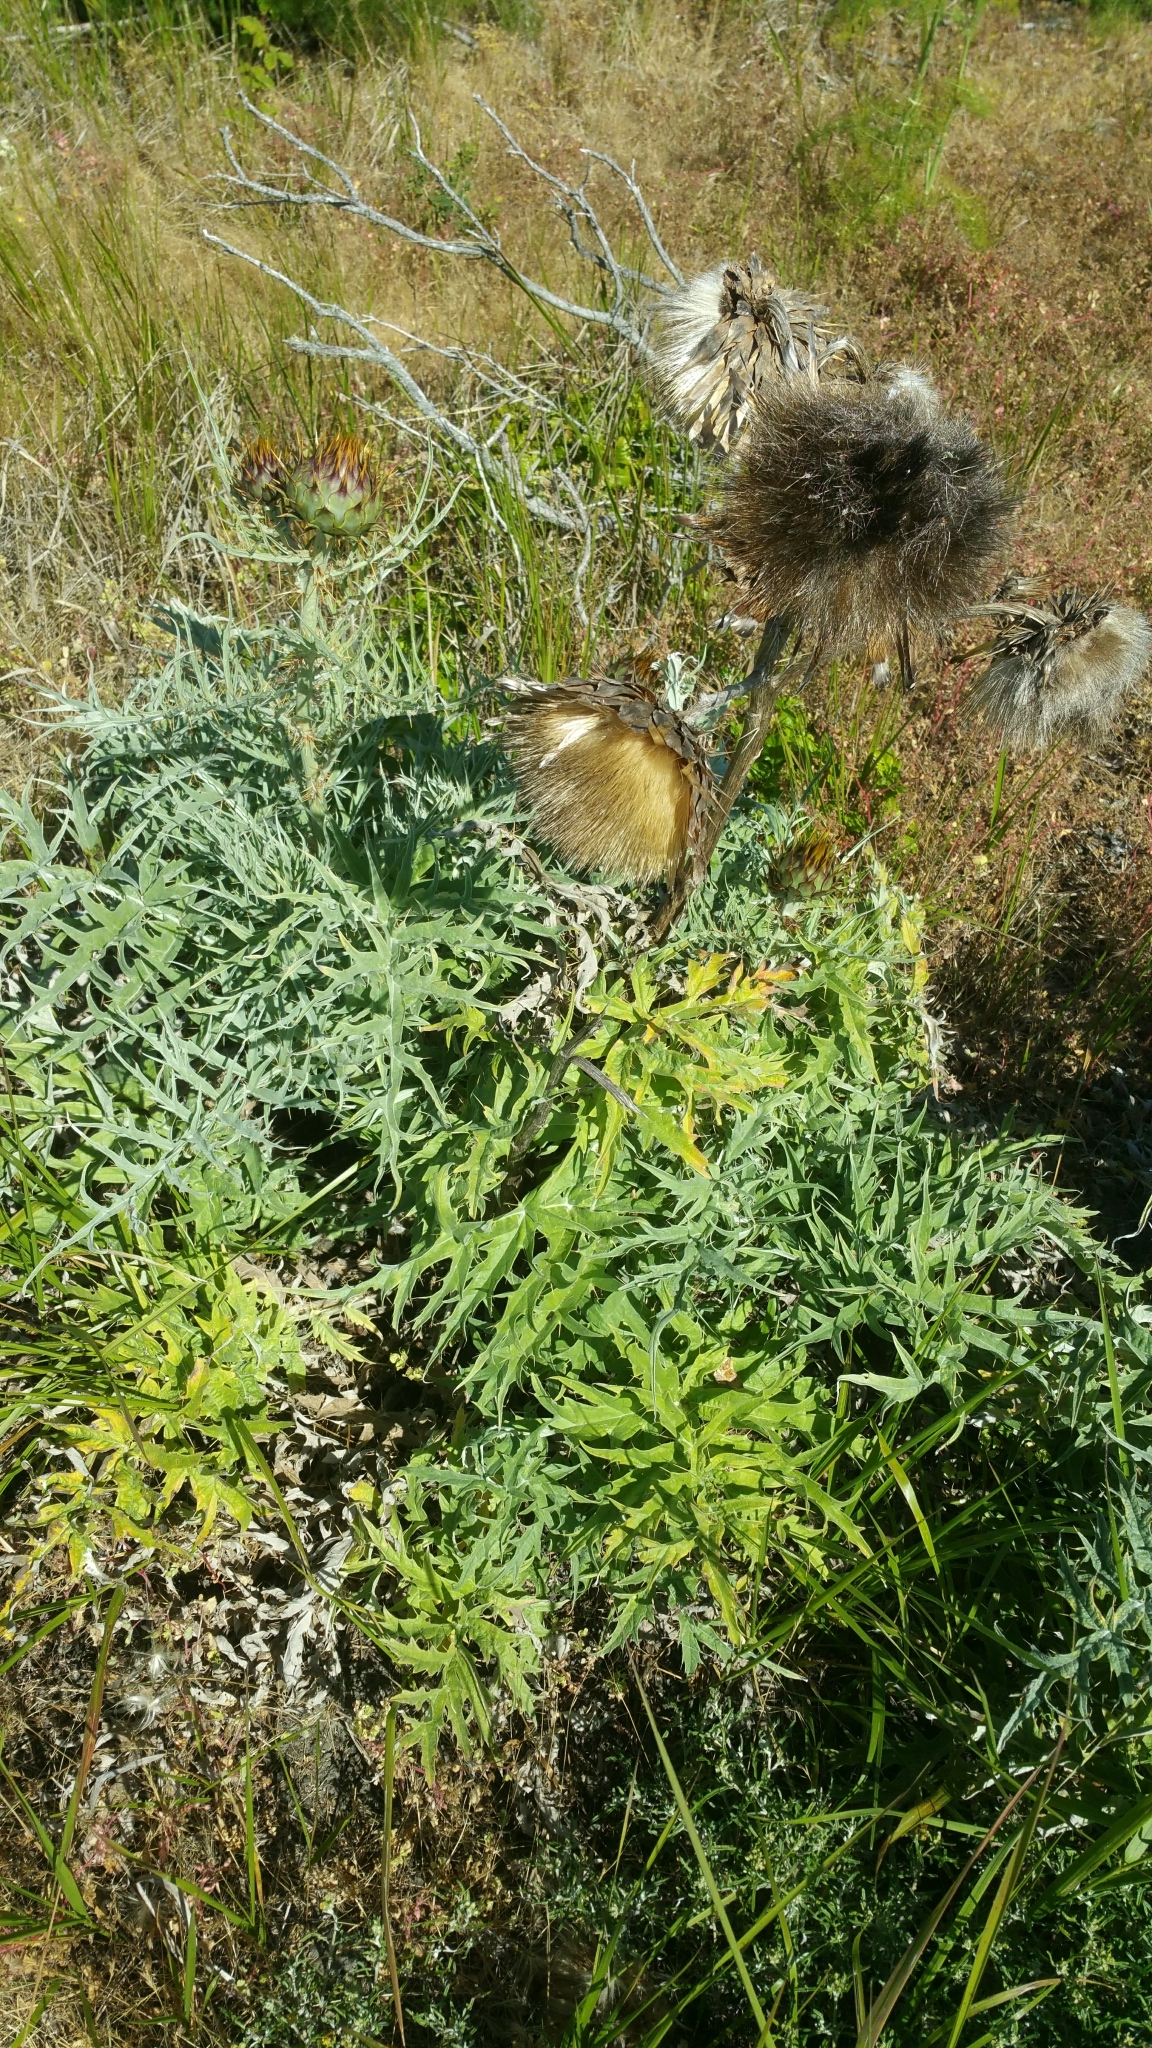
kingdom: Plantae
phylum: Tracheophyta
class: Magnoliopsida
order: Asterales
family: Asteraceae
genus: Cynara
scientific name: Cynara cardunculus
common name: Globe artichoke
